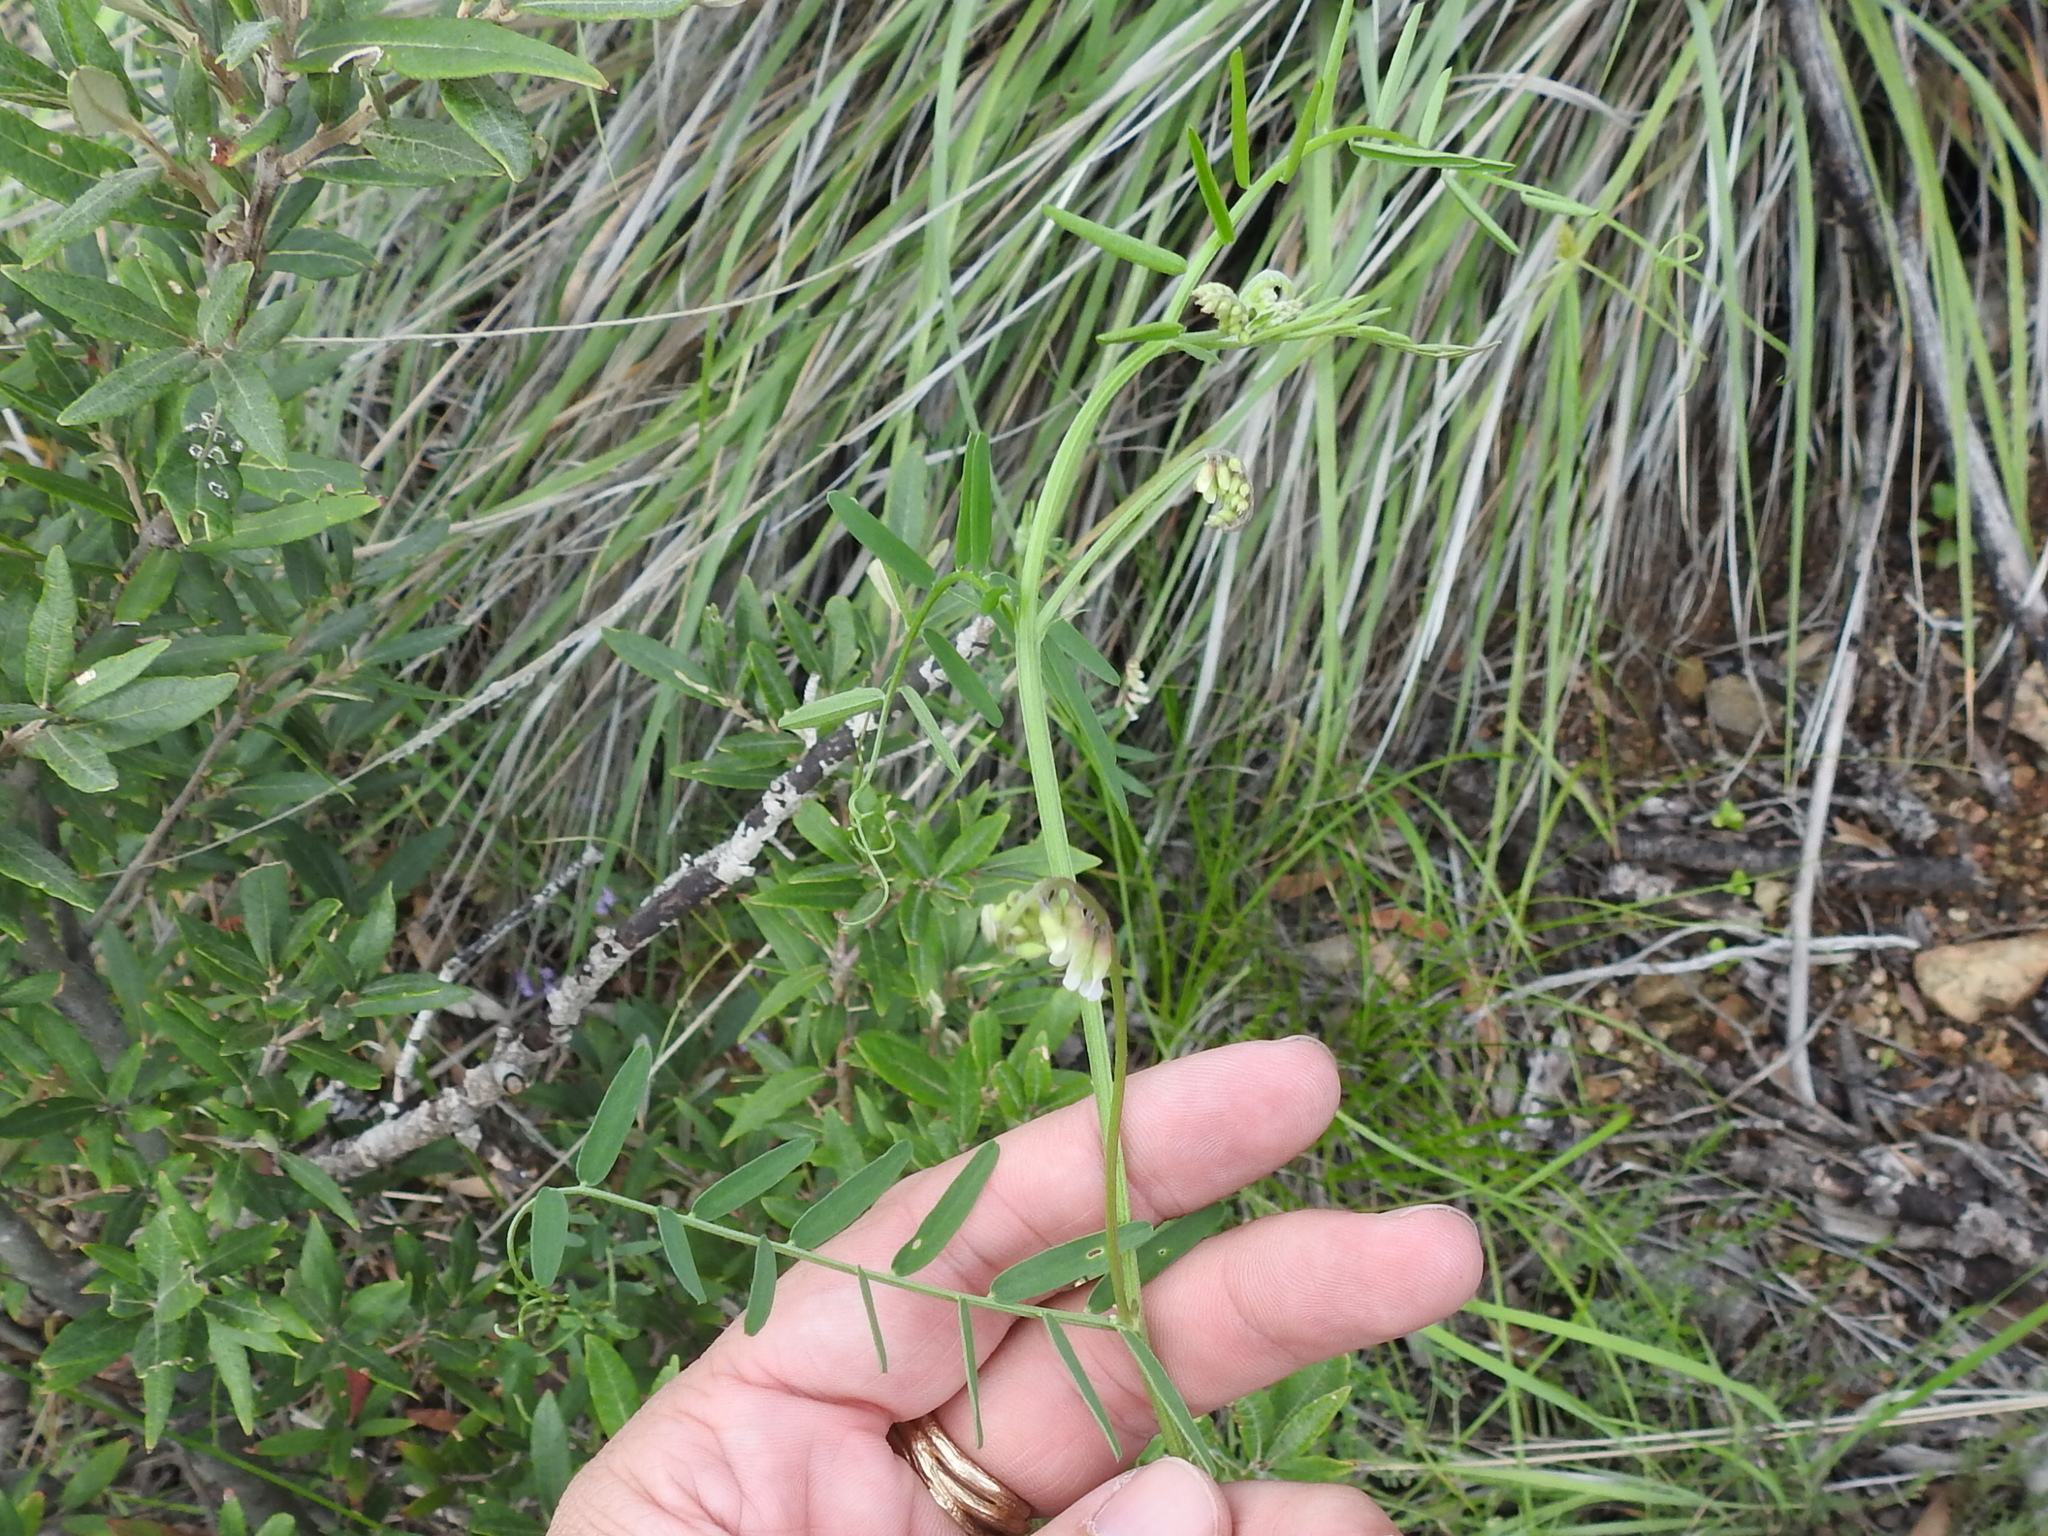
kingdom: Plantae
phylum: Tracheophyta
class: Magnoliopsida
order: Fabales
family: Fabaceae
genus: Vicia
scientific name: Vicia pulchella
